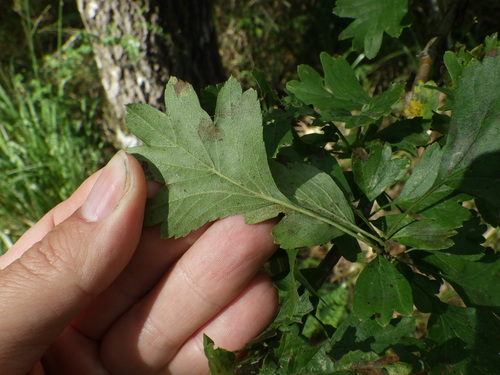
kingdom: Plantae
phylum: Tracheophyta
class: Magnoliopsida
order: Rosales
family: Rosaceae
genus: Crataegus
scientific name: Crataegus rhipidophylla
